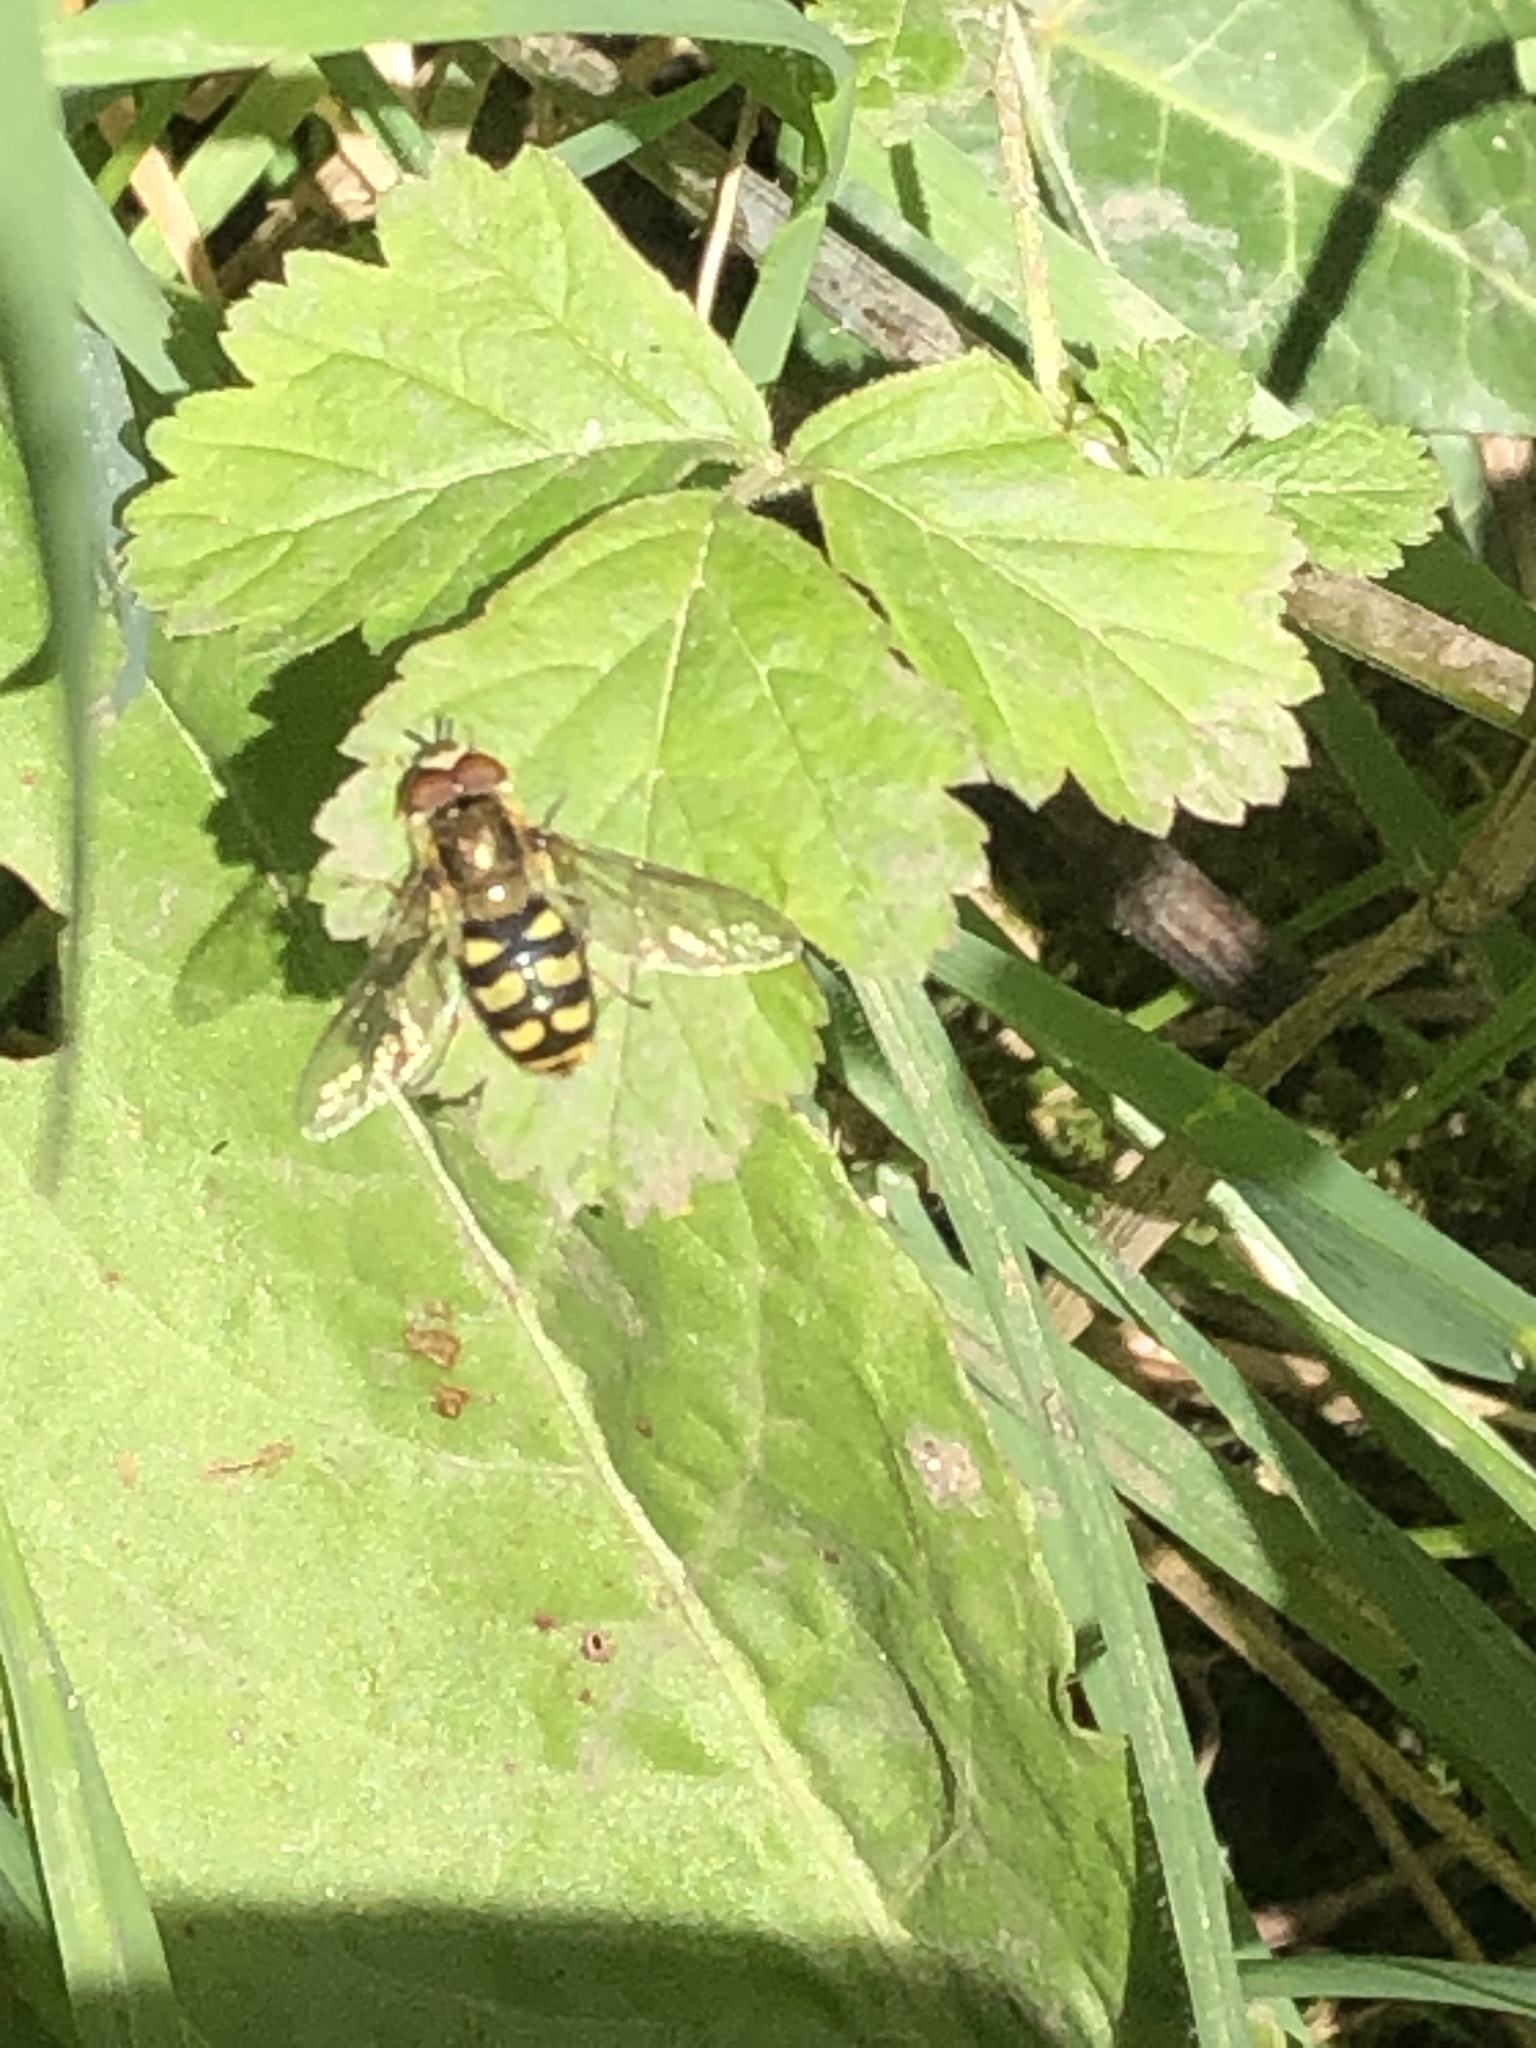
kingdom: Animalia
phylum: Arthropoda
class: Insecta
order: Diptera
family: Syrphidae
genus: Eupeodes
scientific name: Eupeodes
